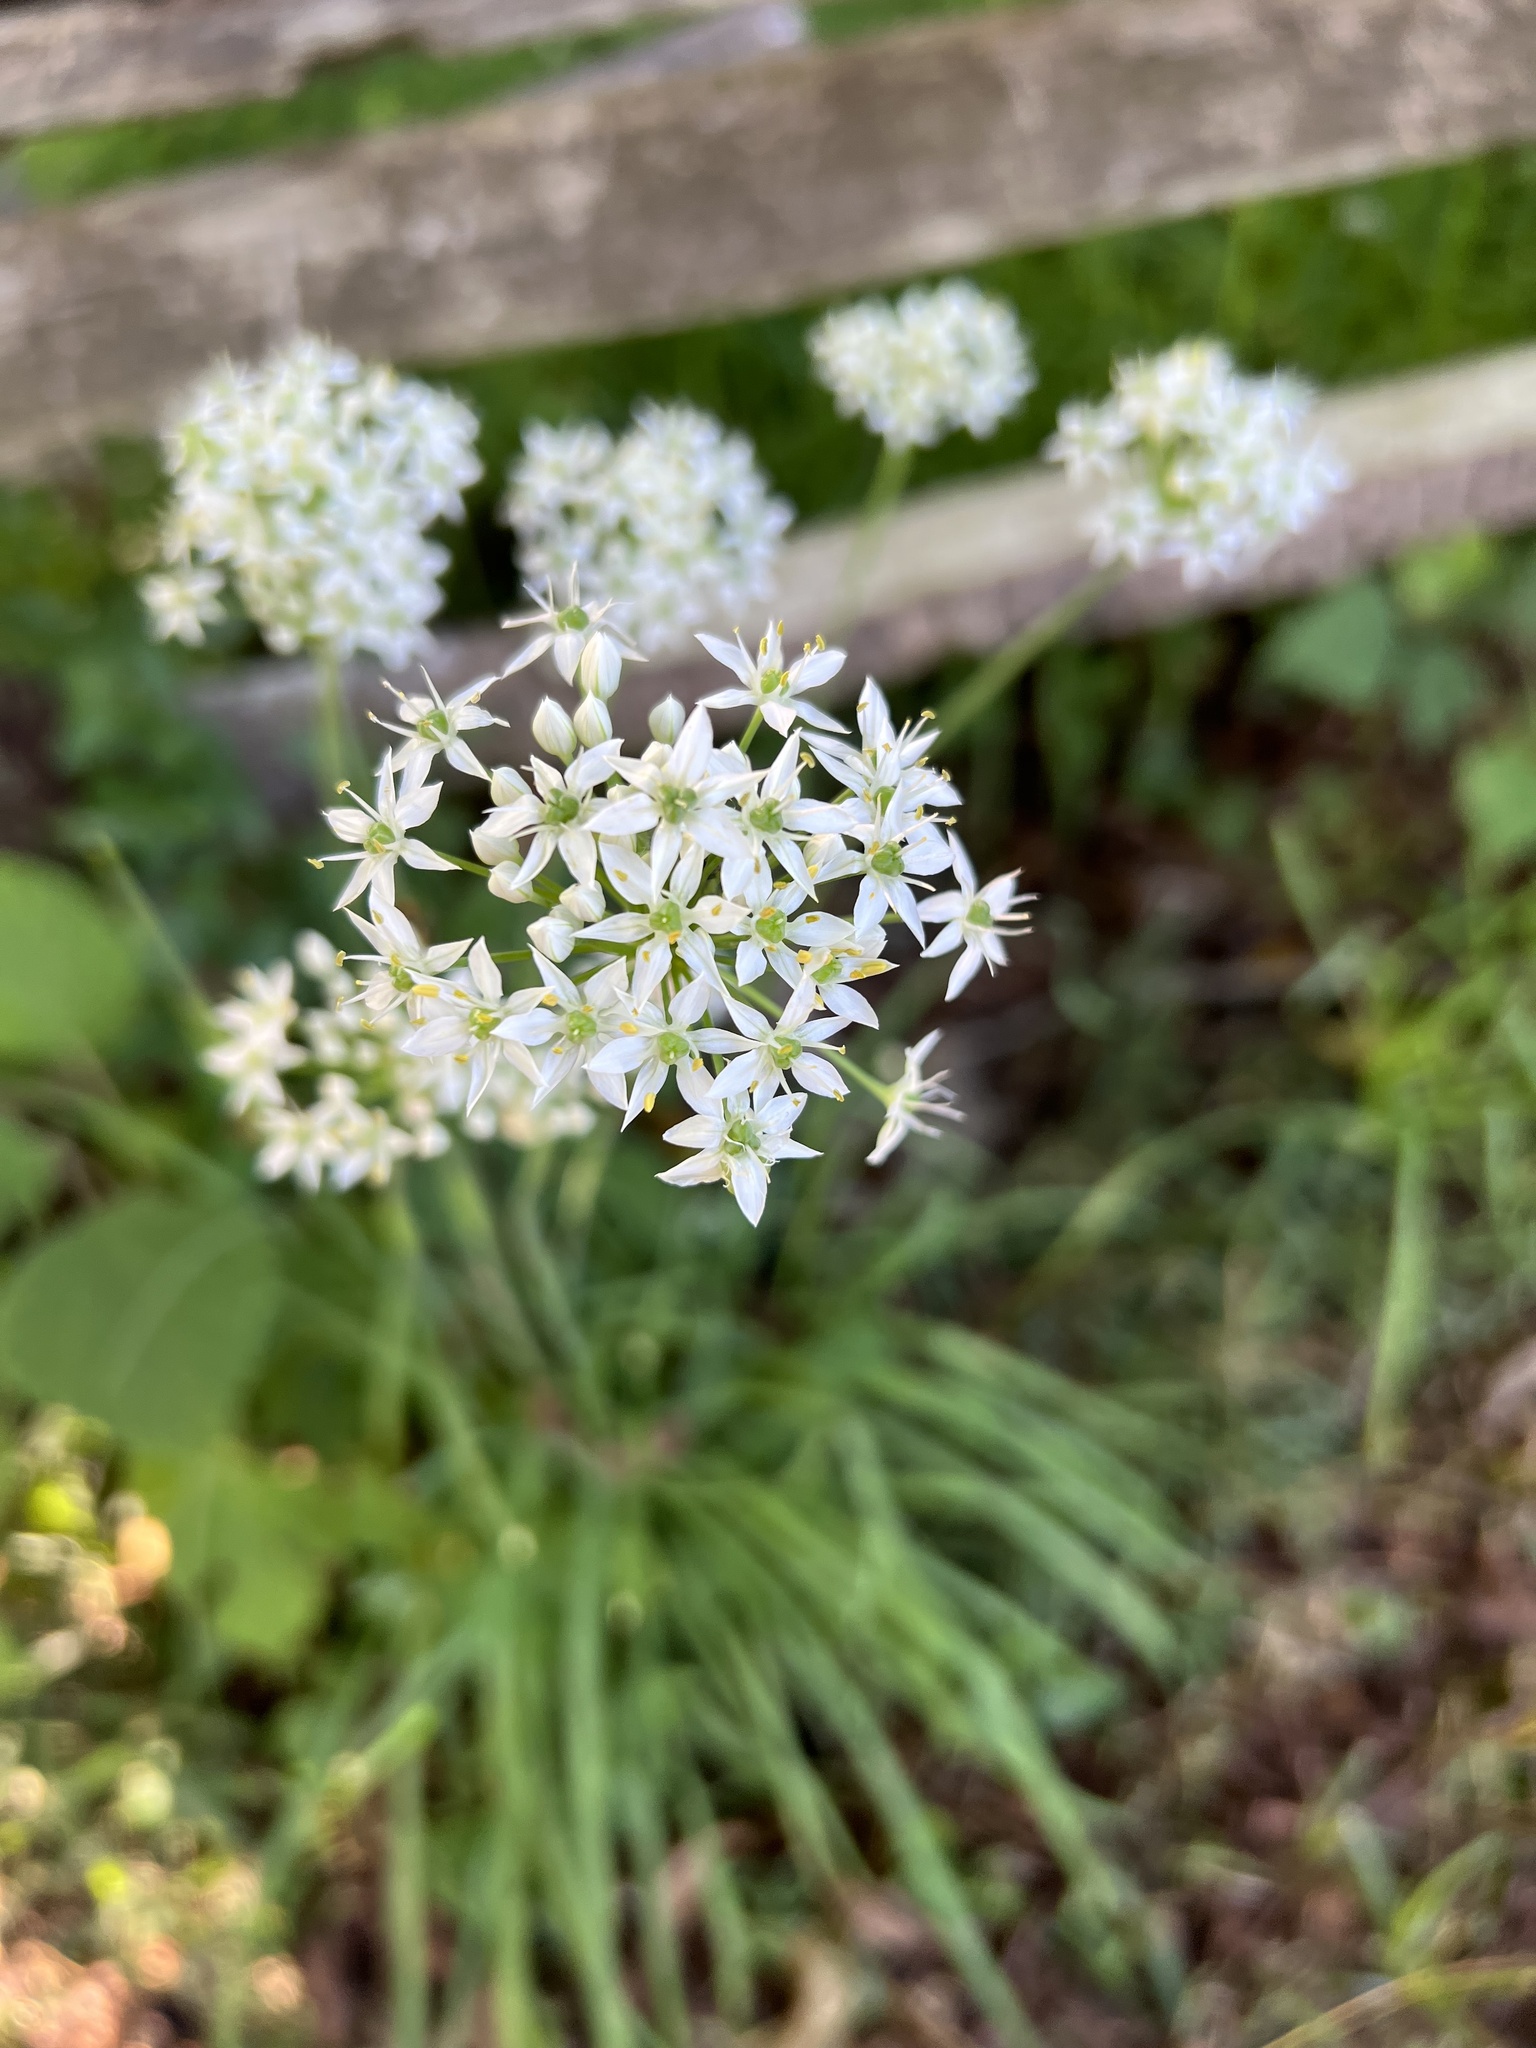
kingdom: Plantae
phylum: Tracheophyta
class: Liliopsida
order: Asparagales
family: Amaryllidaceae
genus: Allium
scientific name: Allium tuberosum
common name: Chinese chives
